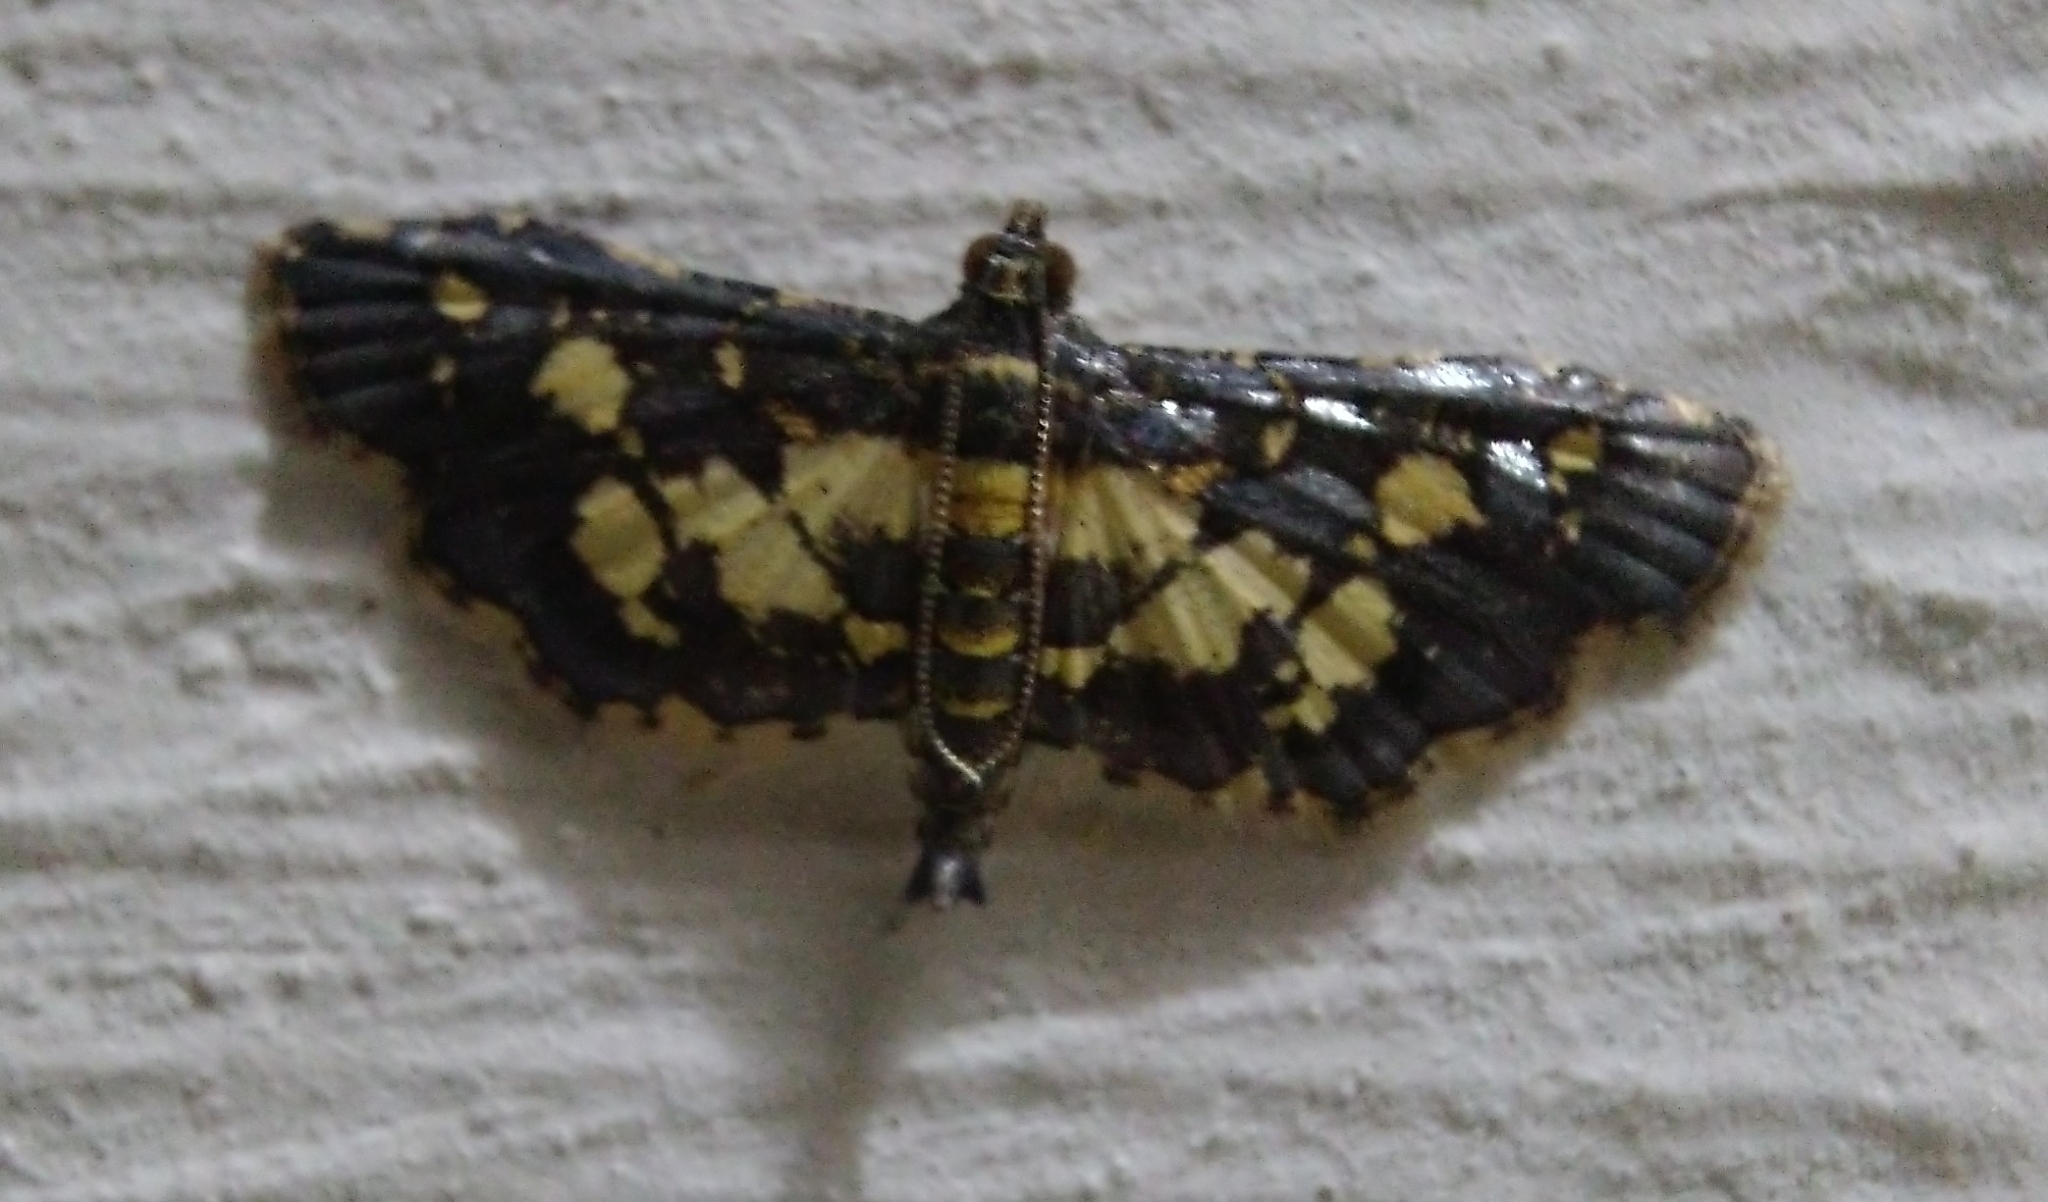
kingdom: Animalia
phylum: Arthropoda
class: Insecta
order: Lepidoptera
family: Crambidae
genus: Eurrhyparodes
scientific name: Eurrhyparodes bracteolalis
